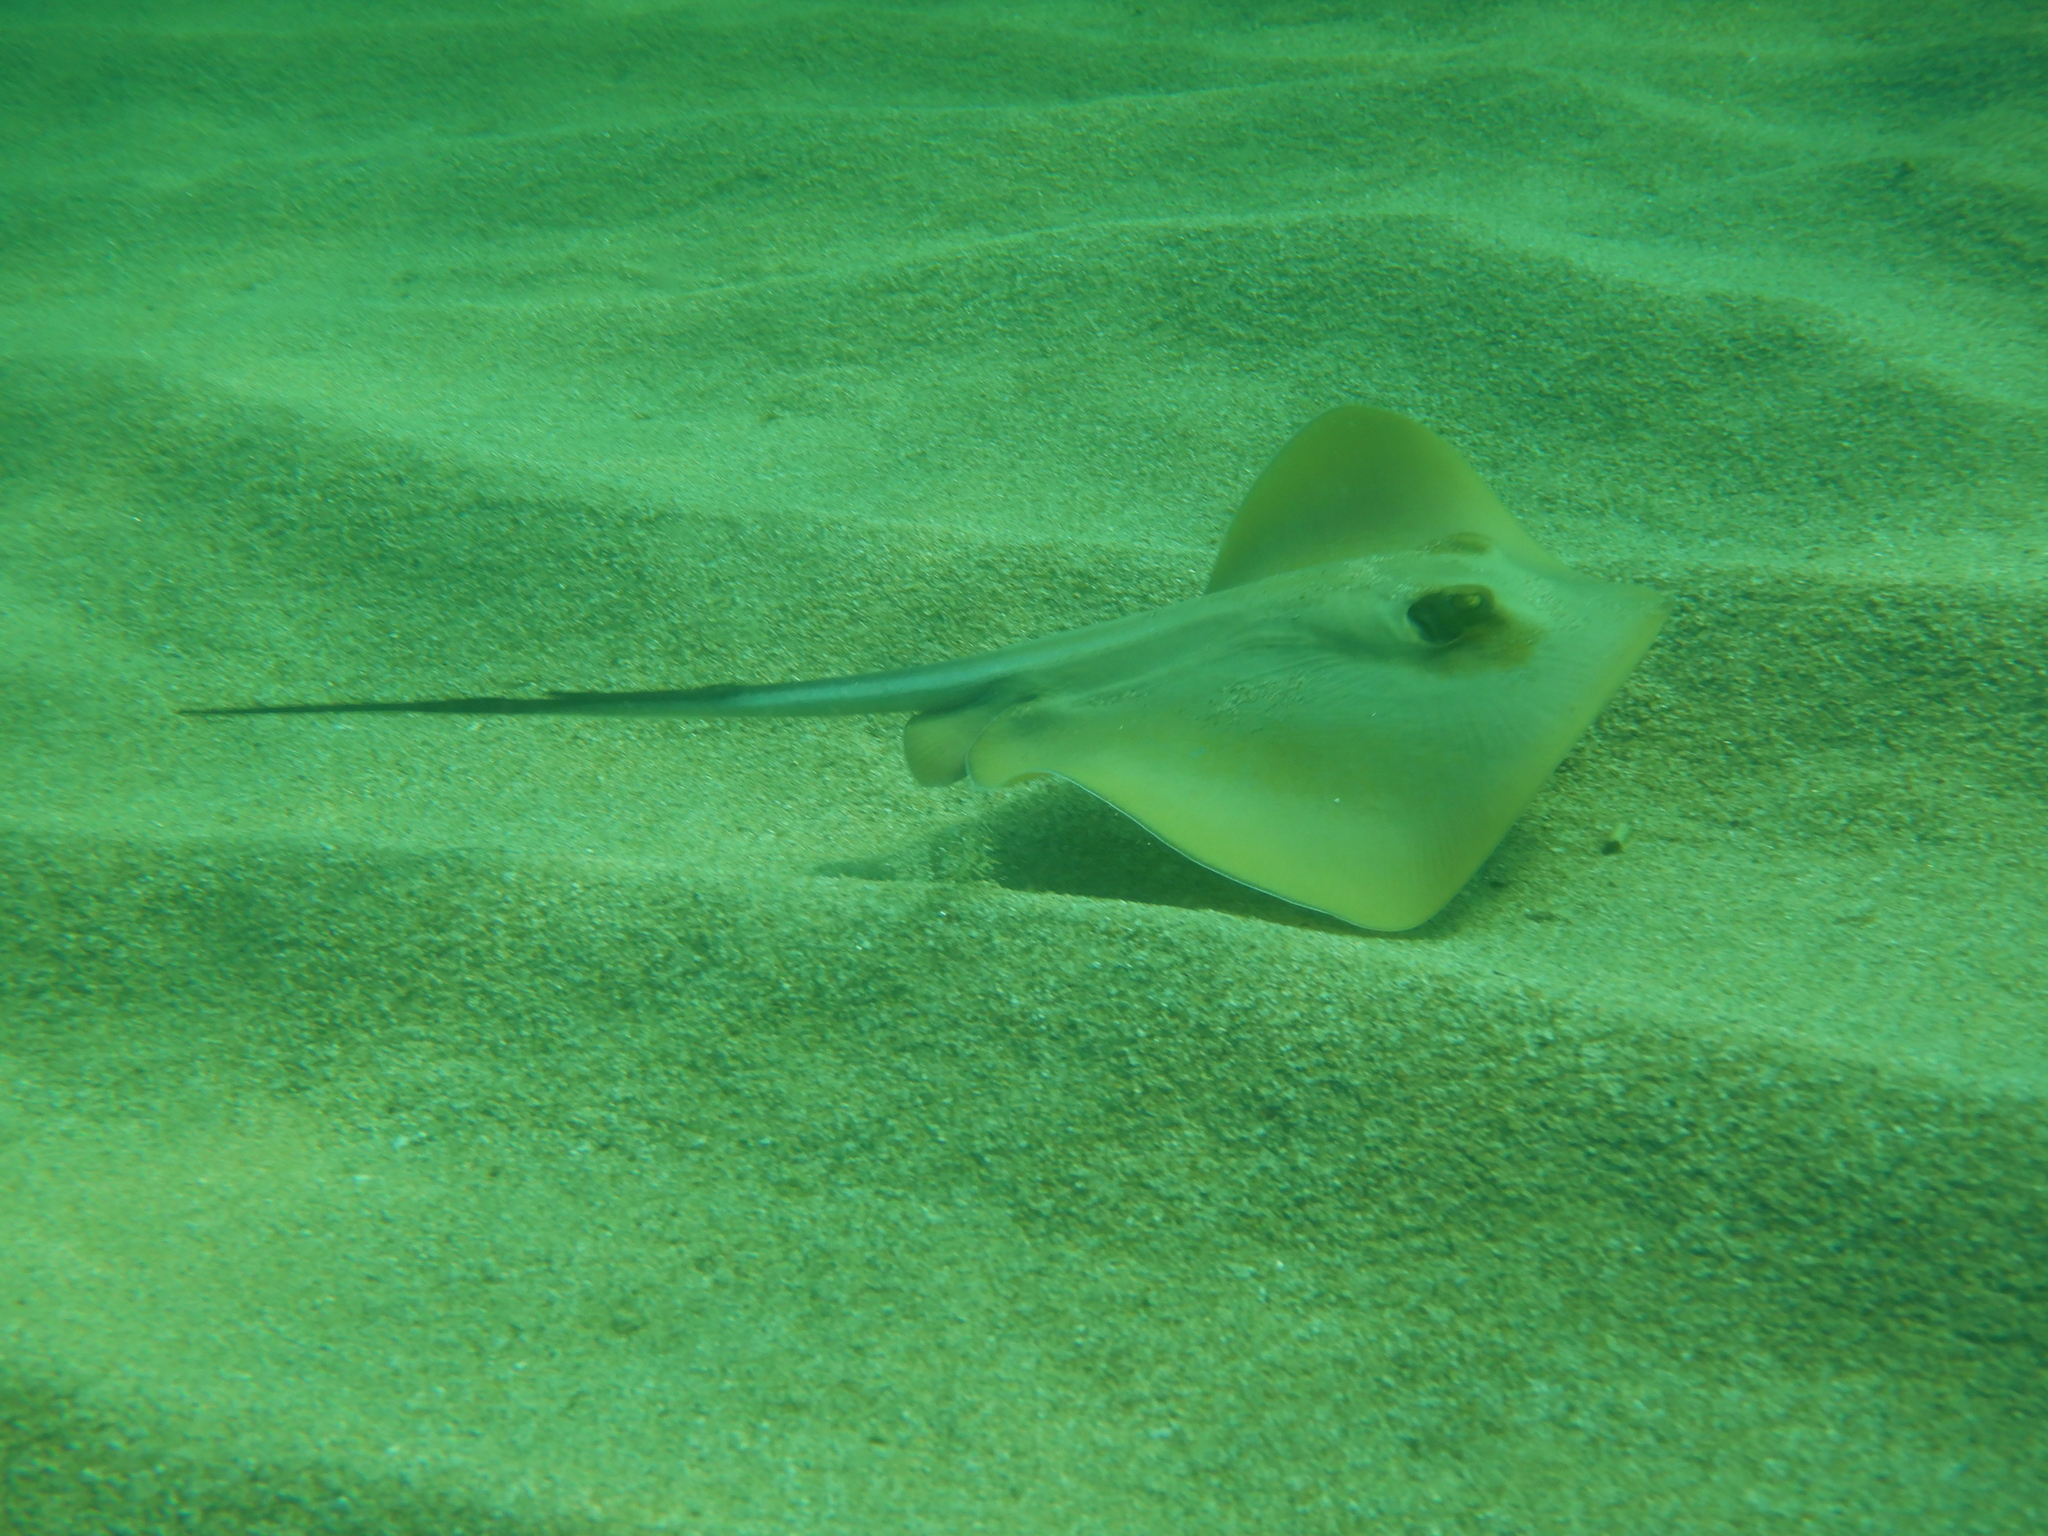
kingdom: Animalia
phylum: Chordata
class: Elasmobranchii
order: Myliobatiformes
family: Dasyatidae
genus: Dasyatis
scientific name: Dasyatis pastinaca
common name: Common stingray
